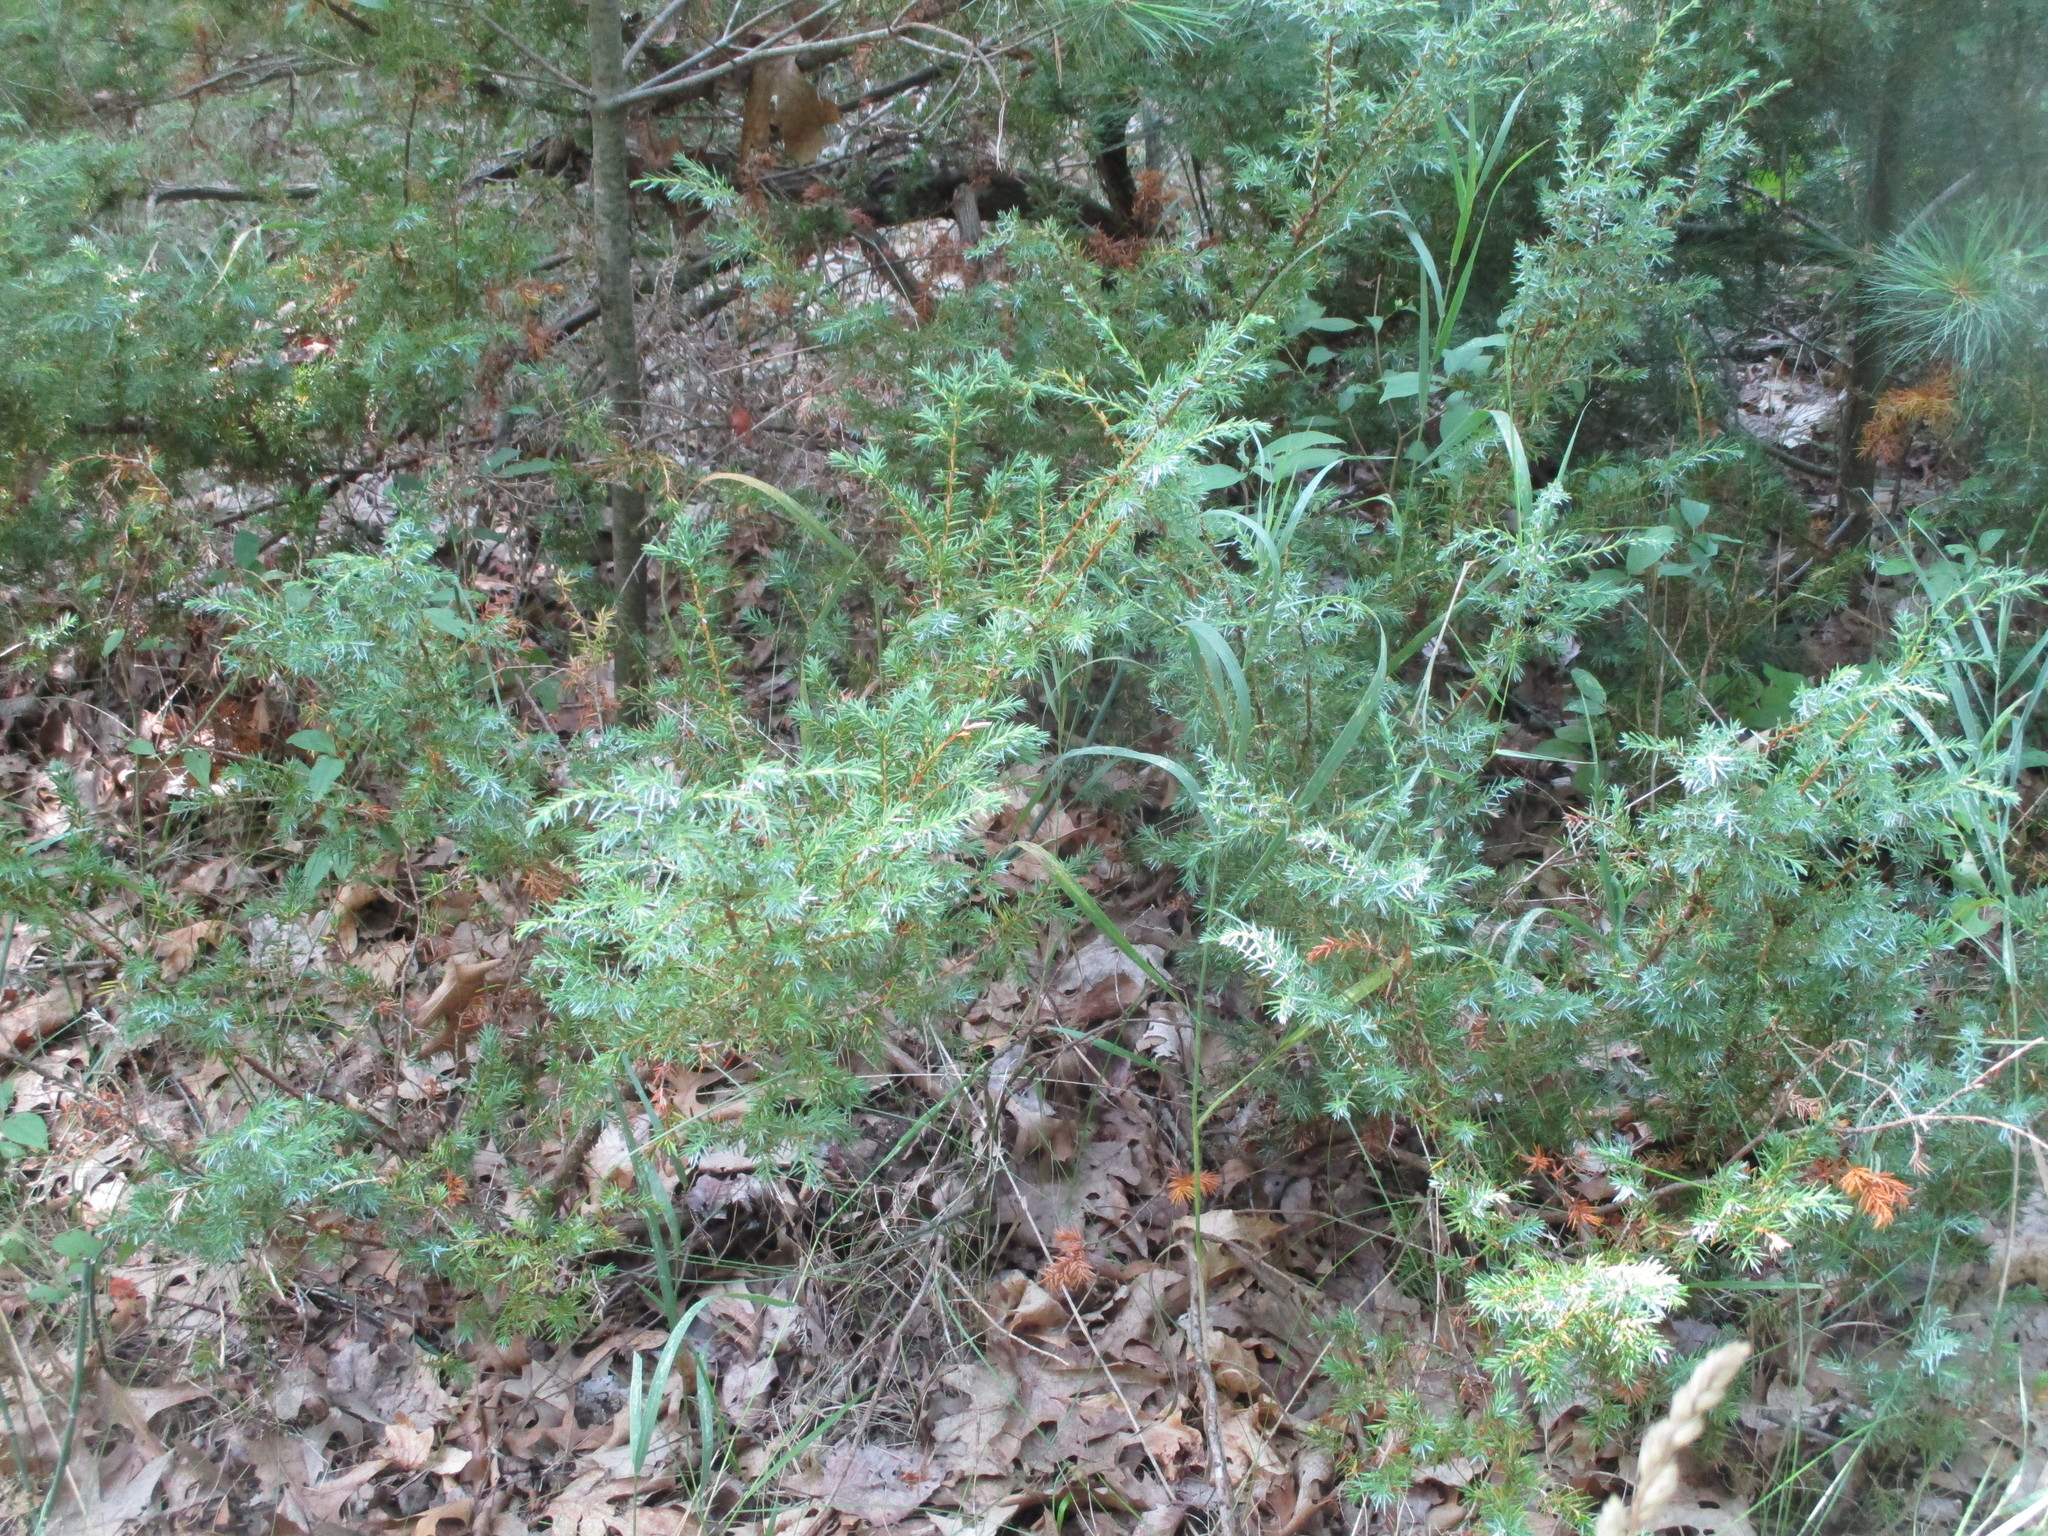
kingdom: Plantae
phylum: Tracheophyta
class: Pinopsida
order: Pinales
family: Cupressaceae
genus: Juniperus
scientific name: Juniperus communis
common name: Common juniper
